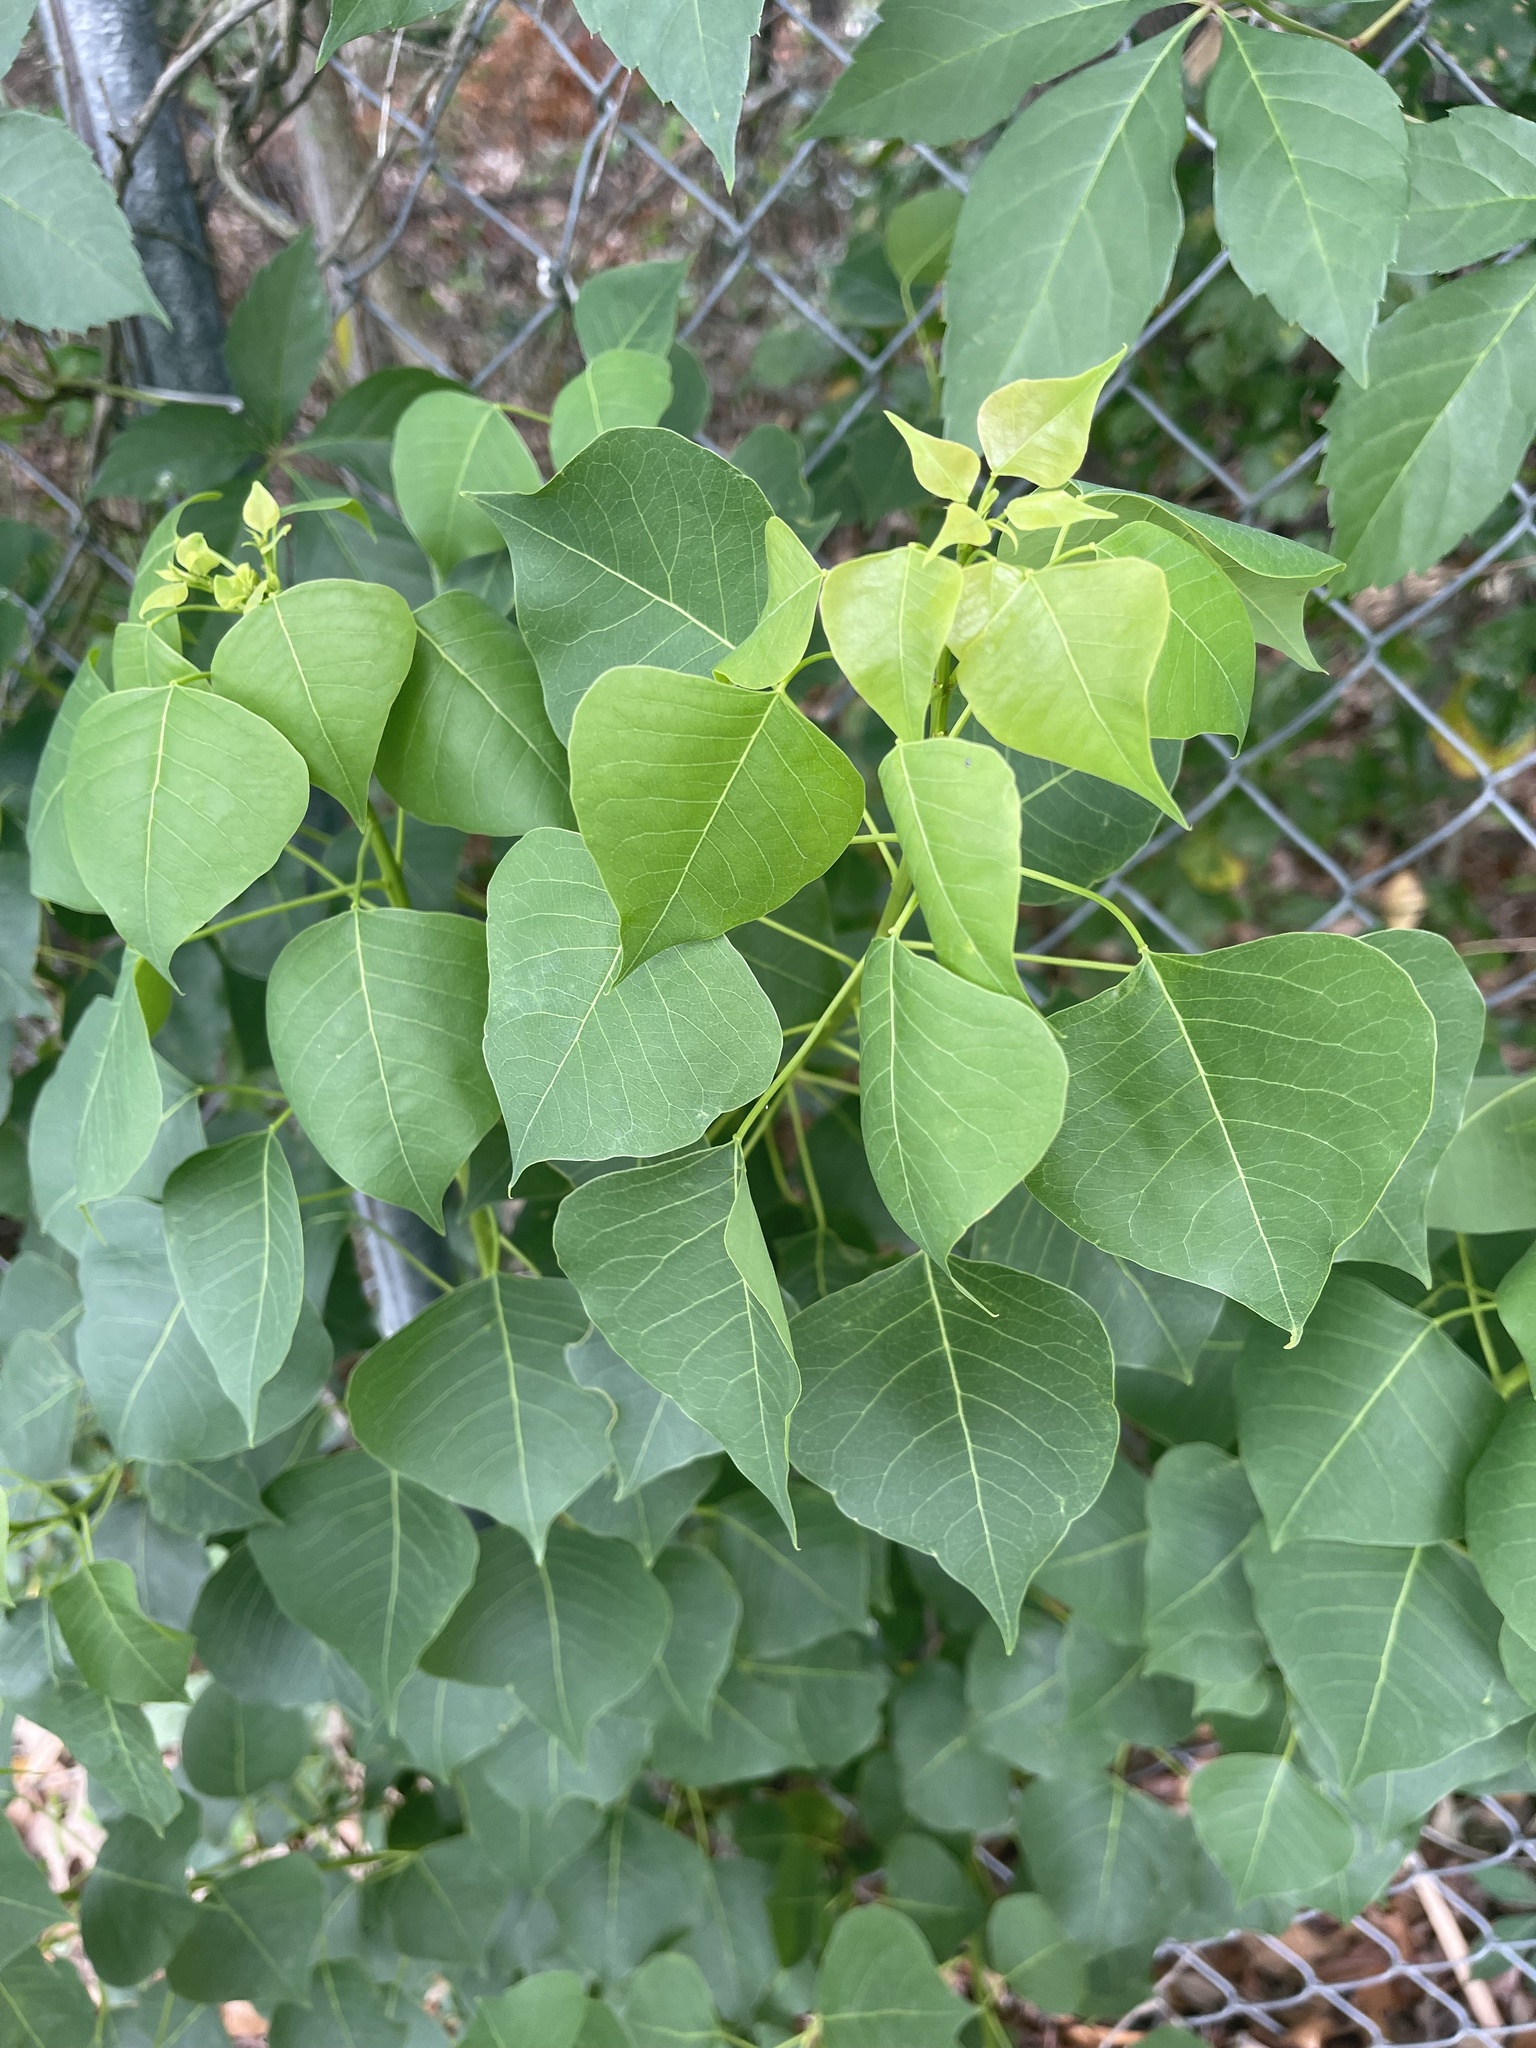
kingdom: Plantae
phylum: Tracheophyta
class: Magnoliopsida
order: Malpighiales
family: Euphorbiaceae
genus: Triadica
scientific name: Triadica sebifera
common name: Chinese tallow
